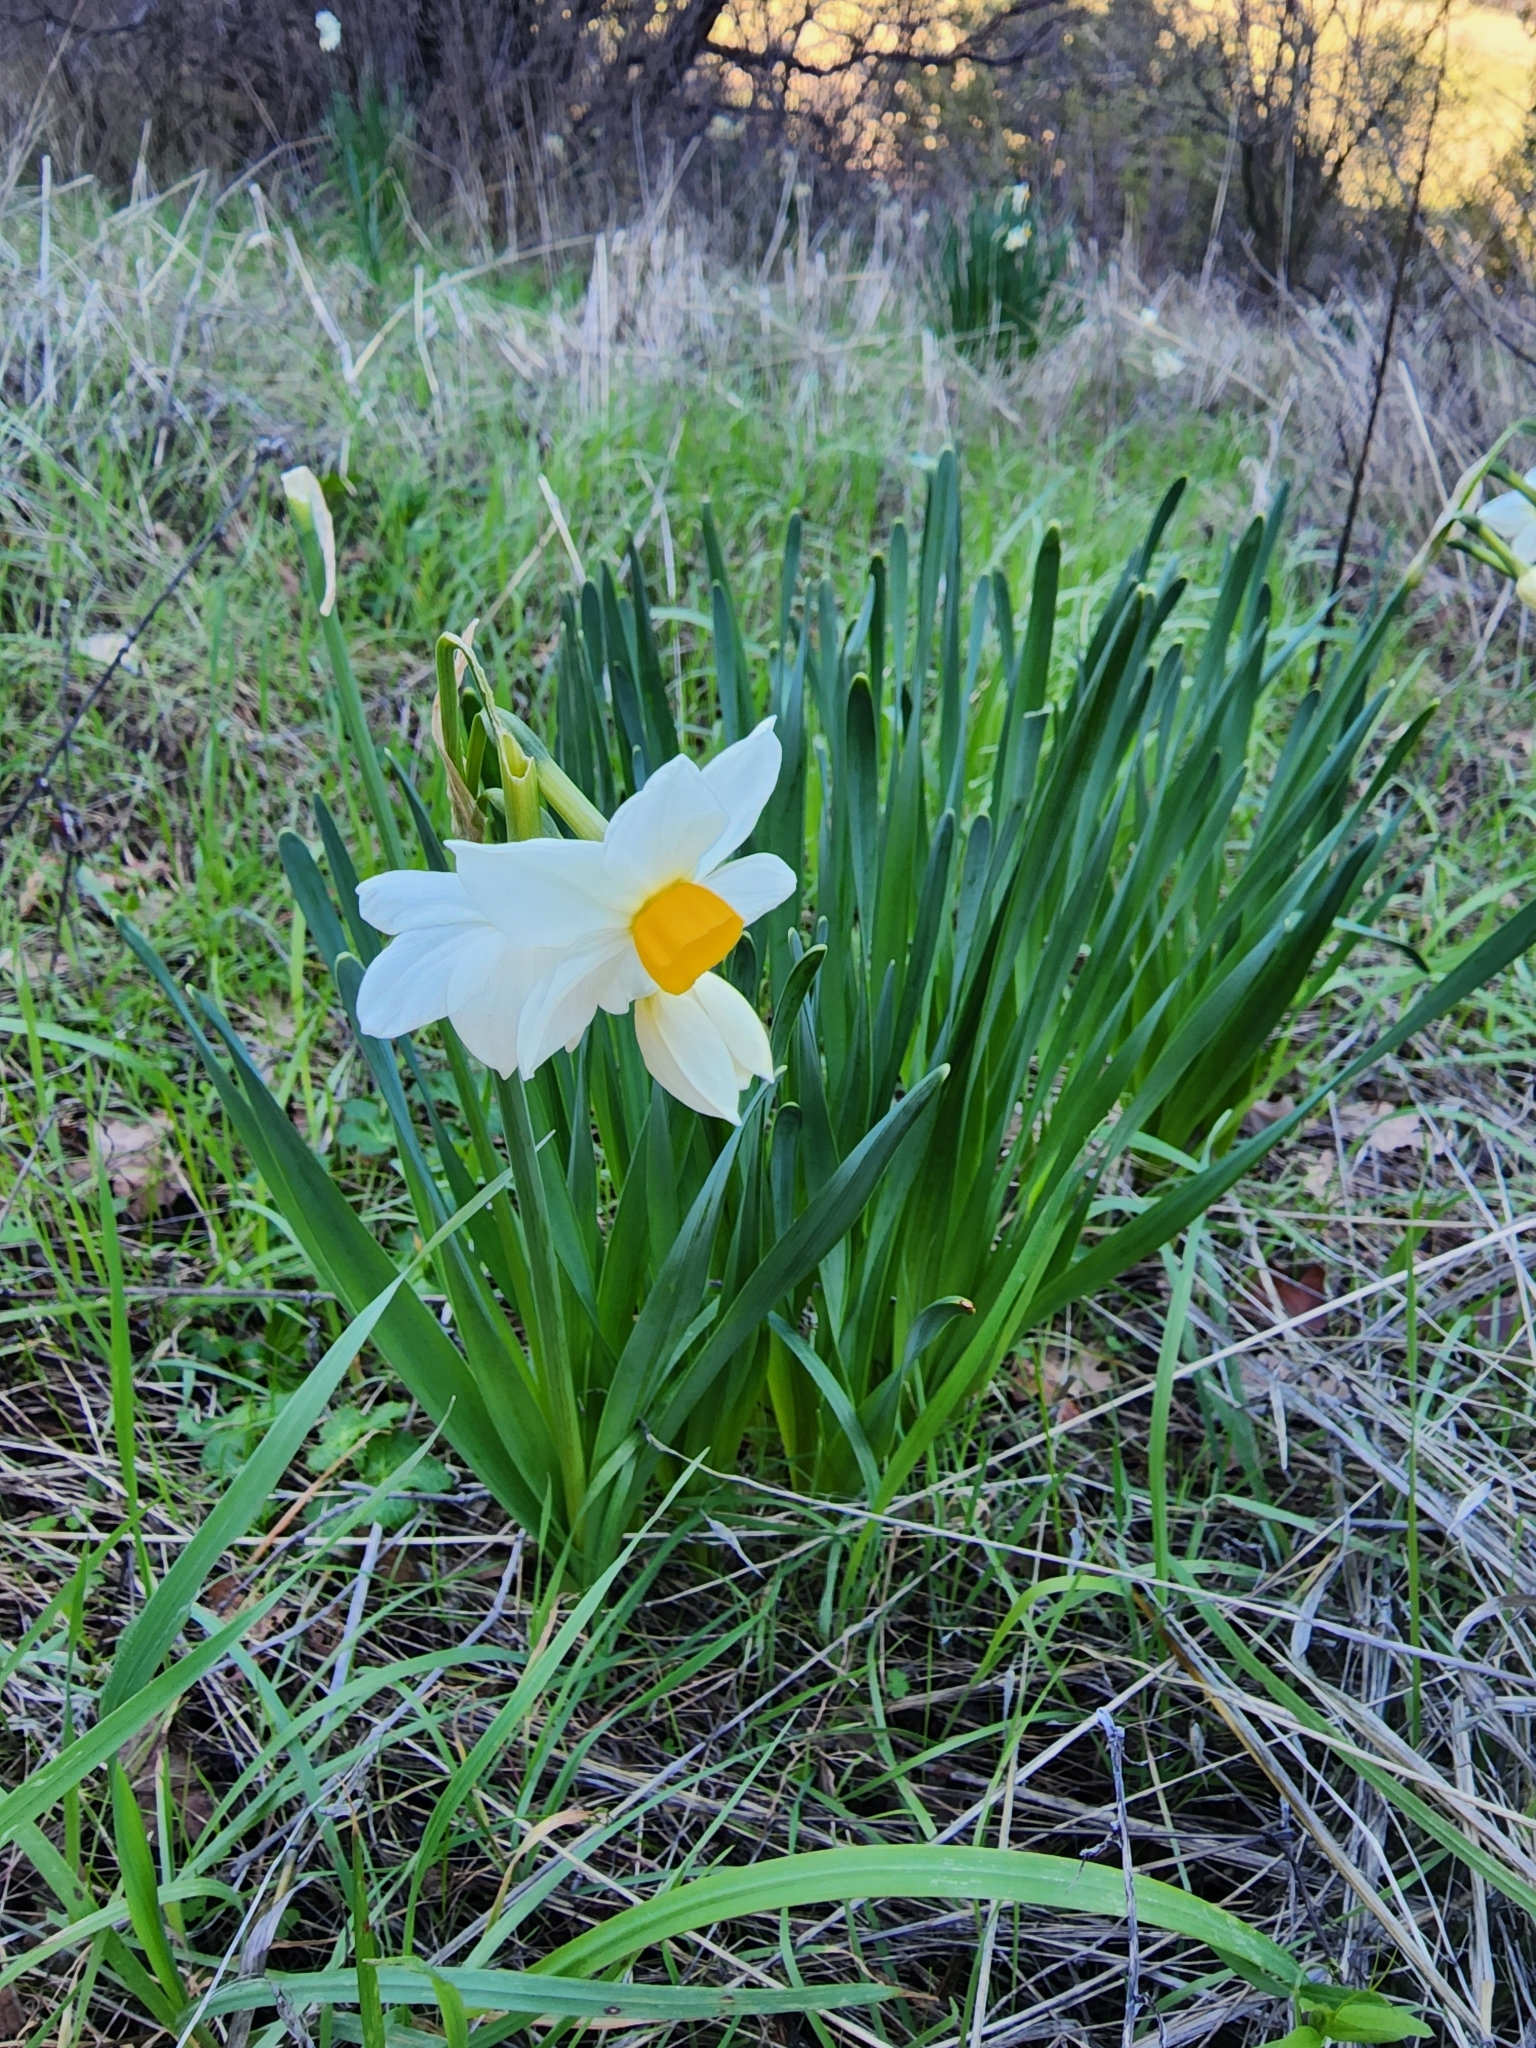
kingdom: Plantae
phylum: Tracheophyta
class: Liliopsida
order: Asparagales
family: Amaryllidaceae
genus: Narcissus
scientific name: Narcissus tazetta
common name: Bunch-flowered daffodil
